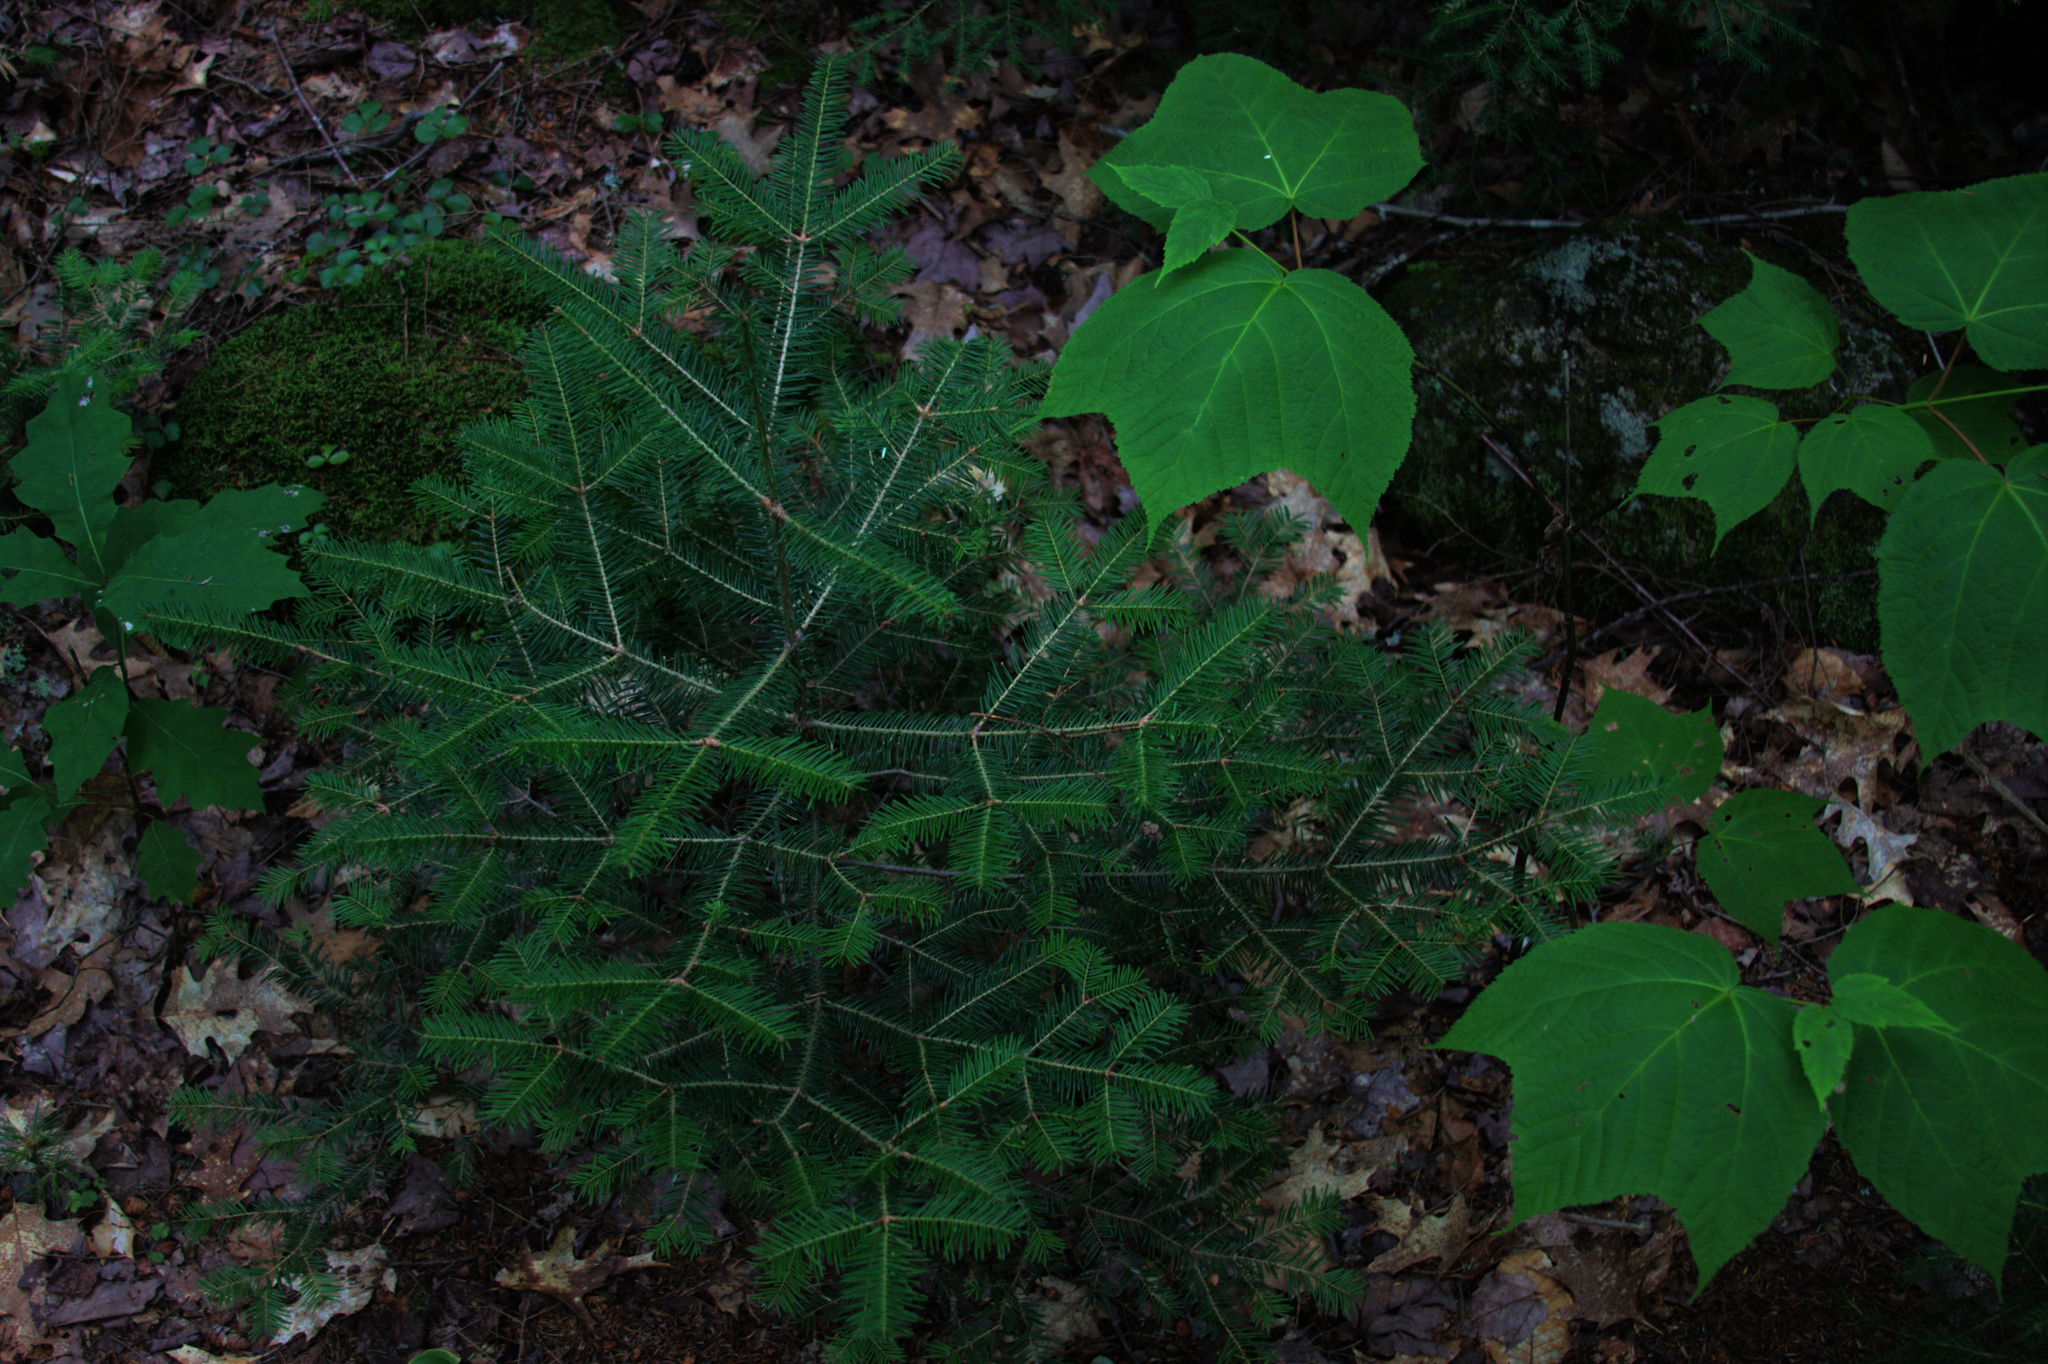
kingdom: Plantae
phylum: Tracheophyta
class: Magnoliopsida
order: Sapindales
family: Sapindaceae
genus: Acer
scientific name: Acer pensylvanicum
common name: Moosewood
